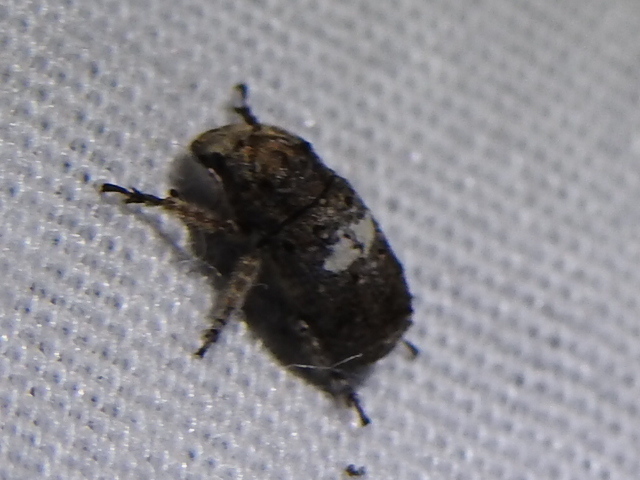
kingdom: Animalia
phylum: Arthropoda
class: Insecta
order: Coleoptera
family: Anthribidae
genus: Toxonotus
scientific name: Toxonotus cornutus
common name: Fungus weevil
